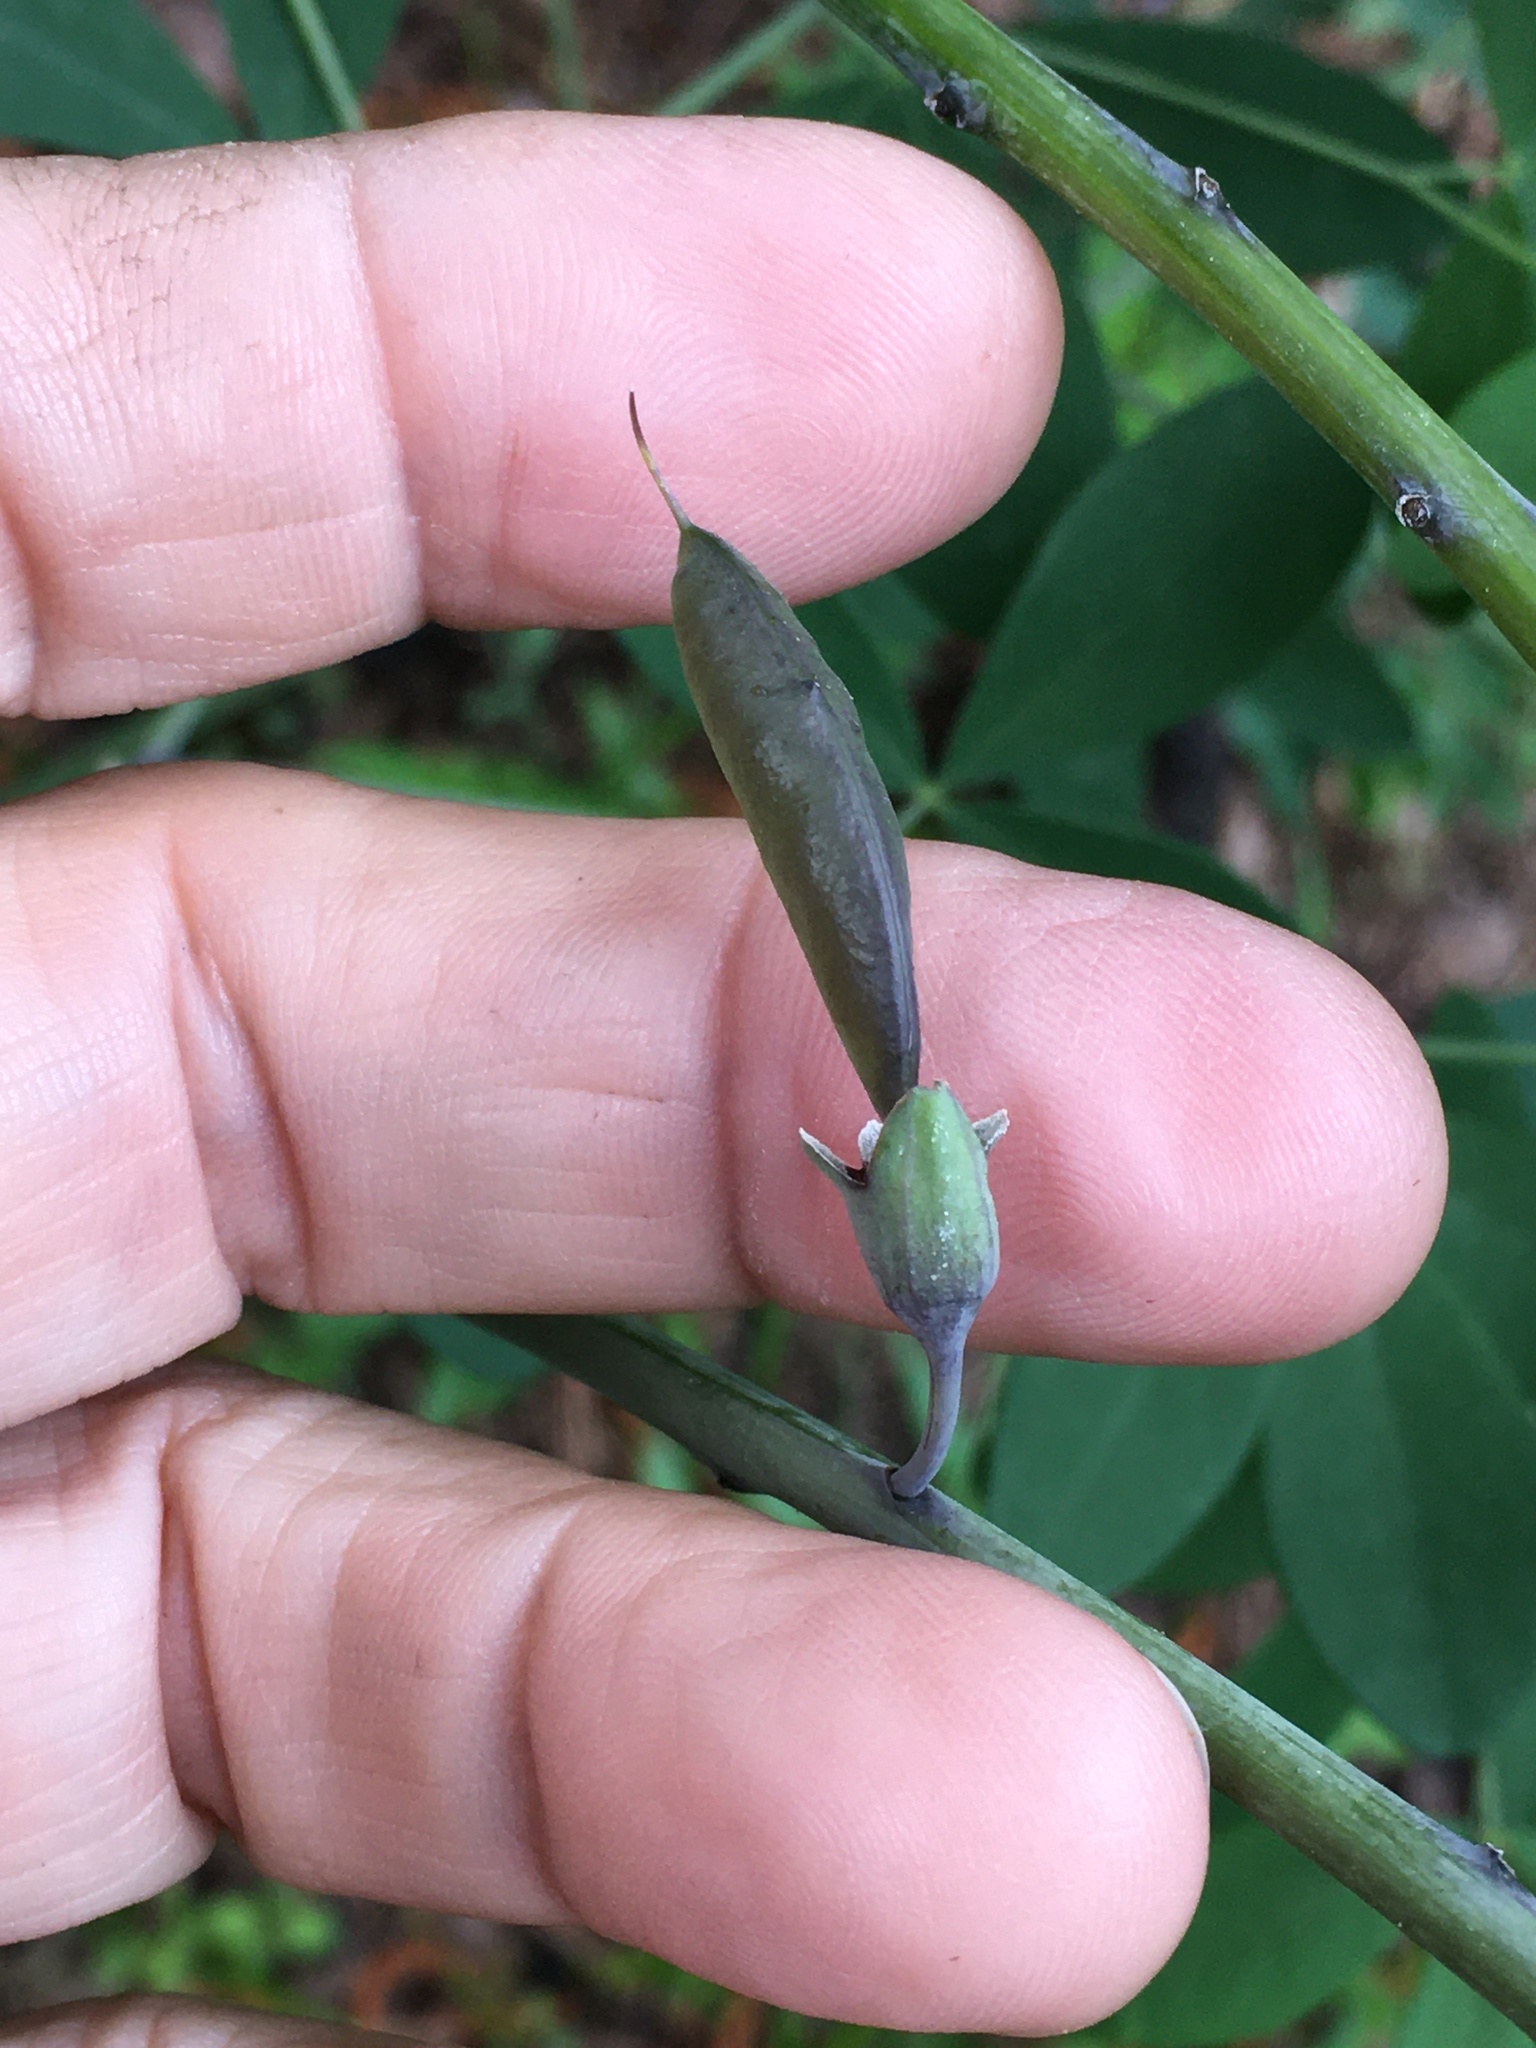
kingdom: Plantae
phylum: Tracheophyta
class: Magnoliopsida
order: Fabales
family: Fabaceae
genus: Baptisia
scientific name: Baptisia alba
